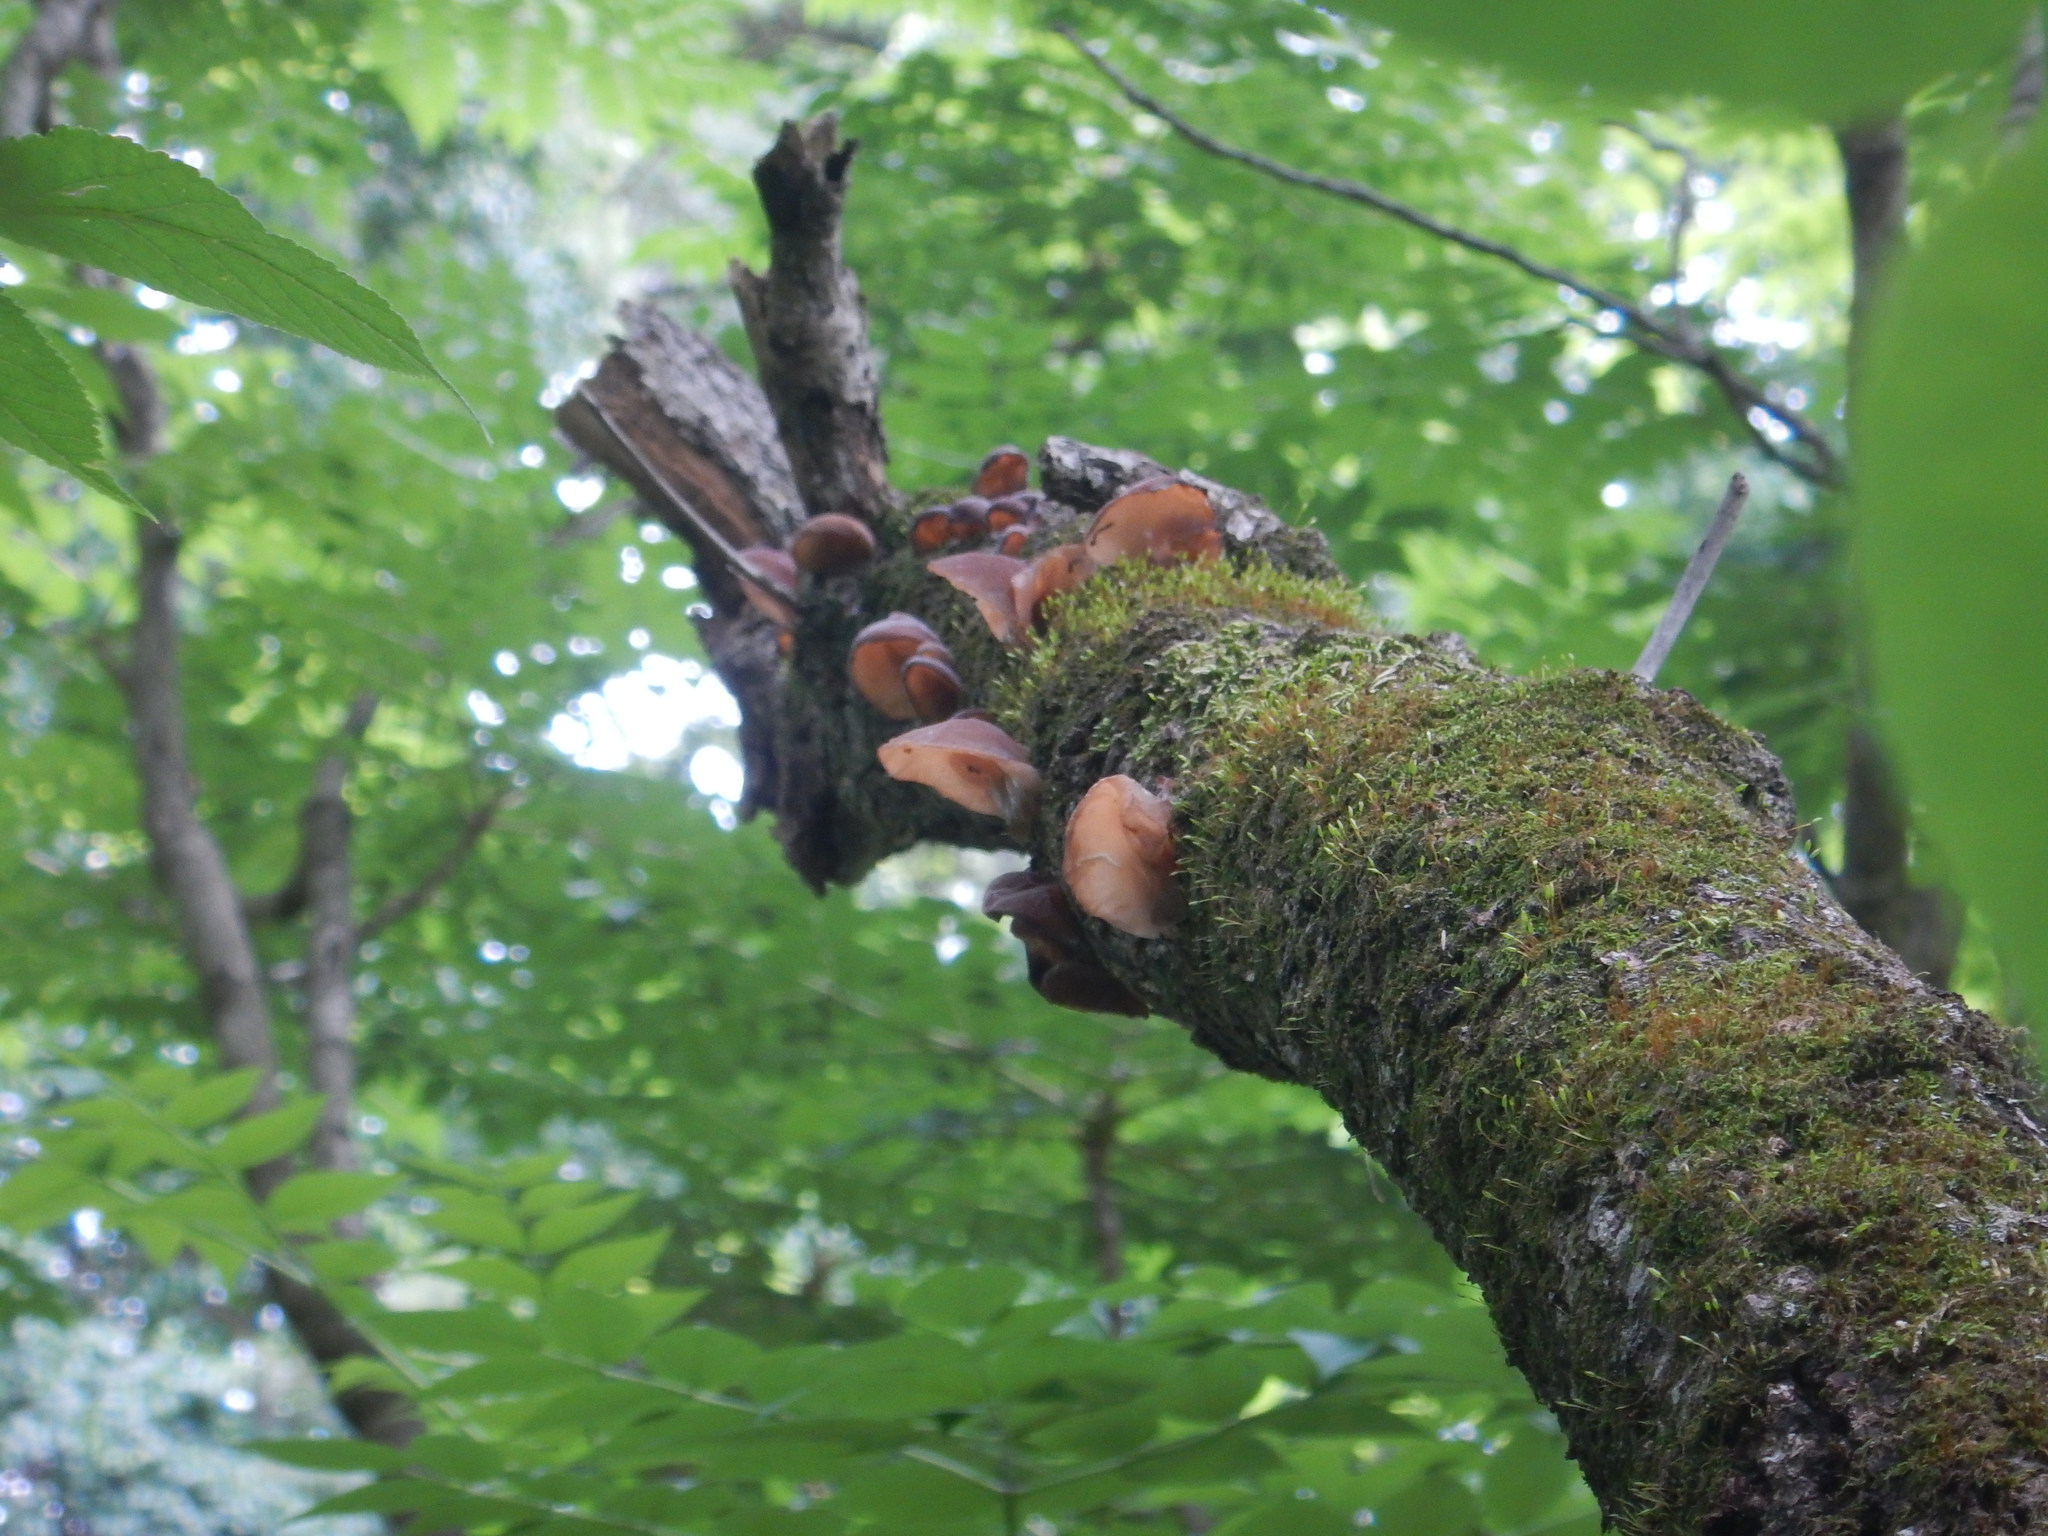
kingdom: Fungi
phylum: Basidiomycota
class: Agaricomycetes
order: Auriculariales
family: Auriculariaceae
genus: Auricularia
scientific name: Auricularia
